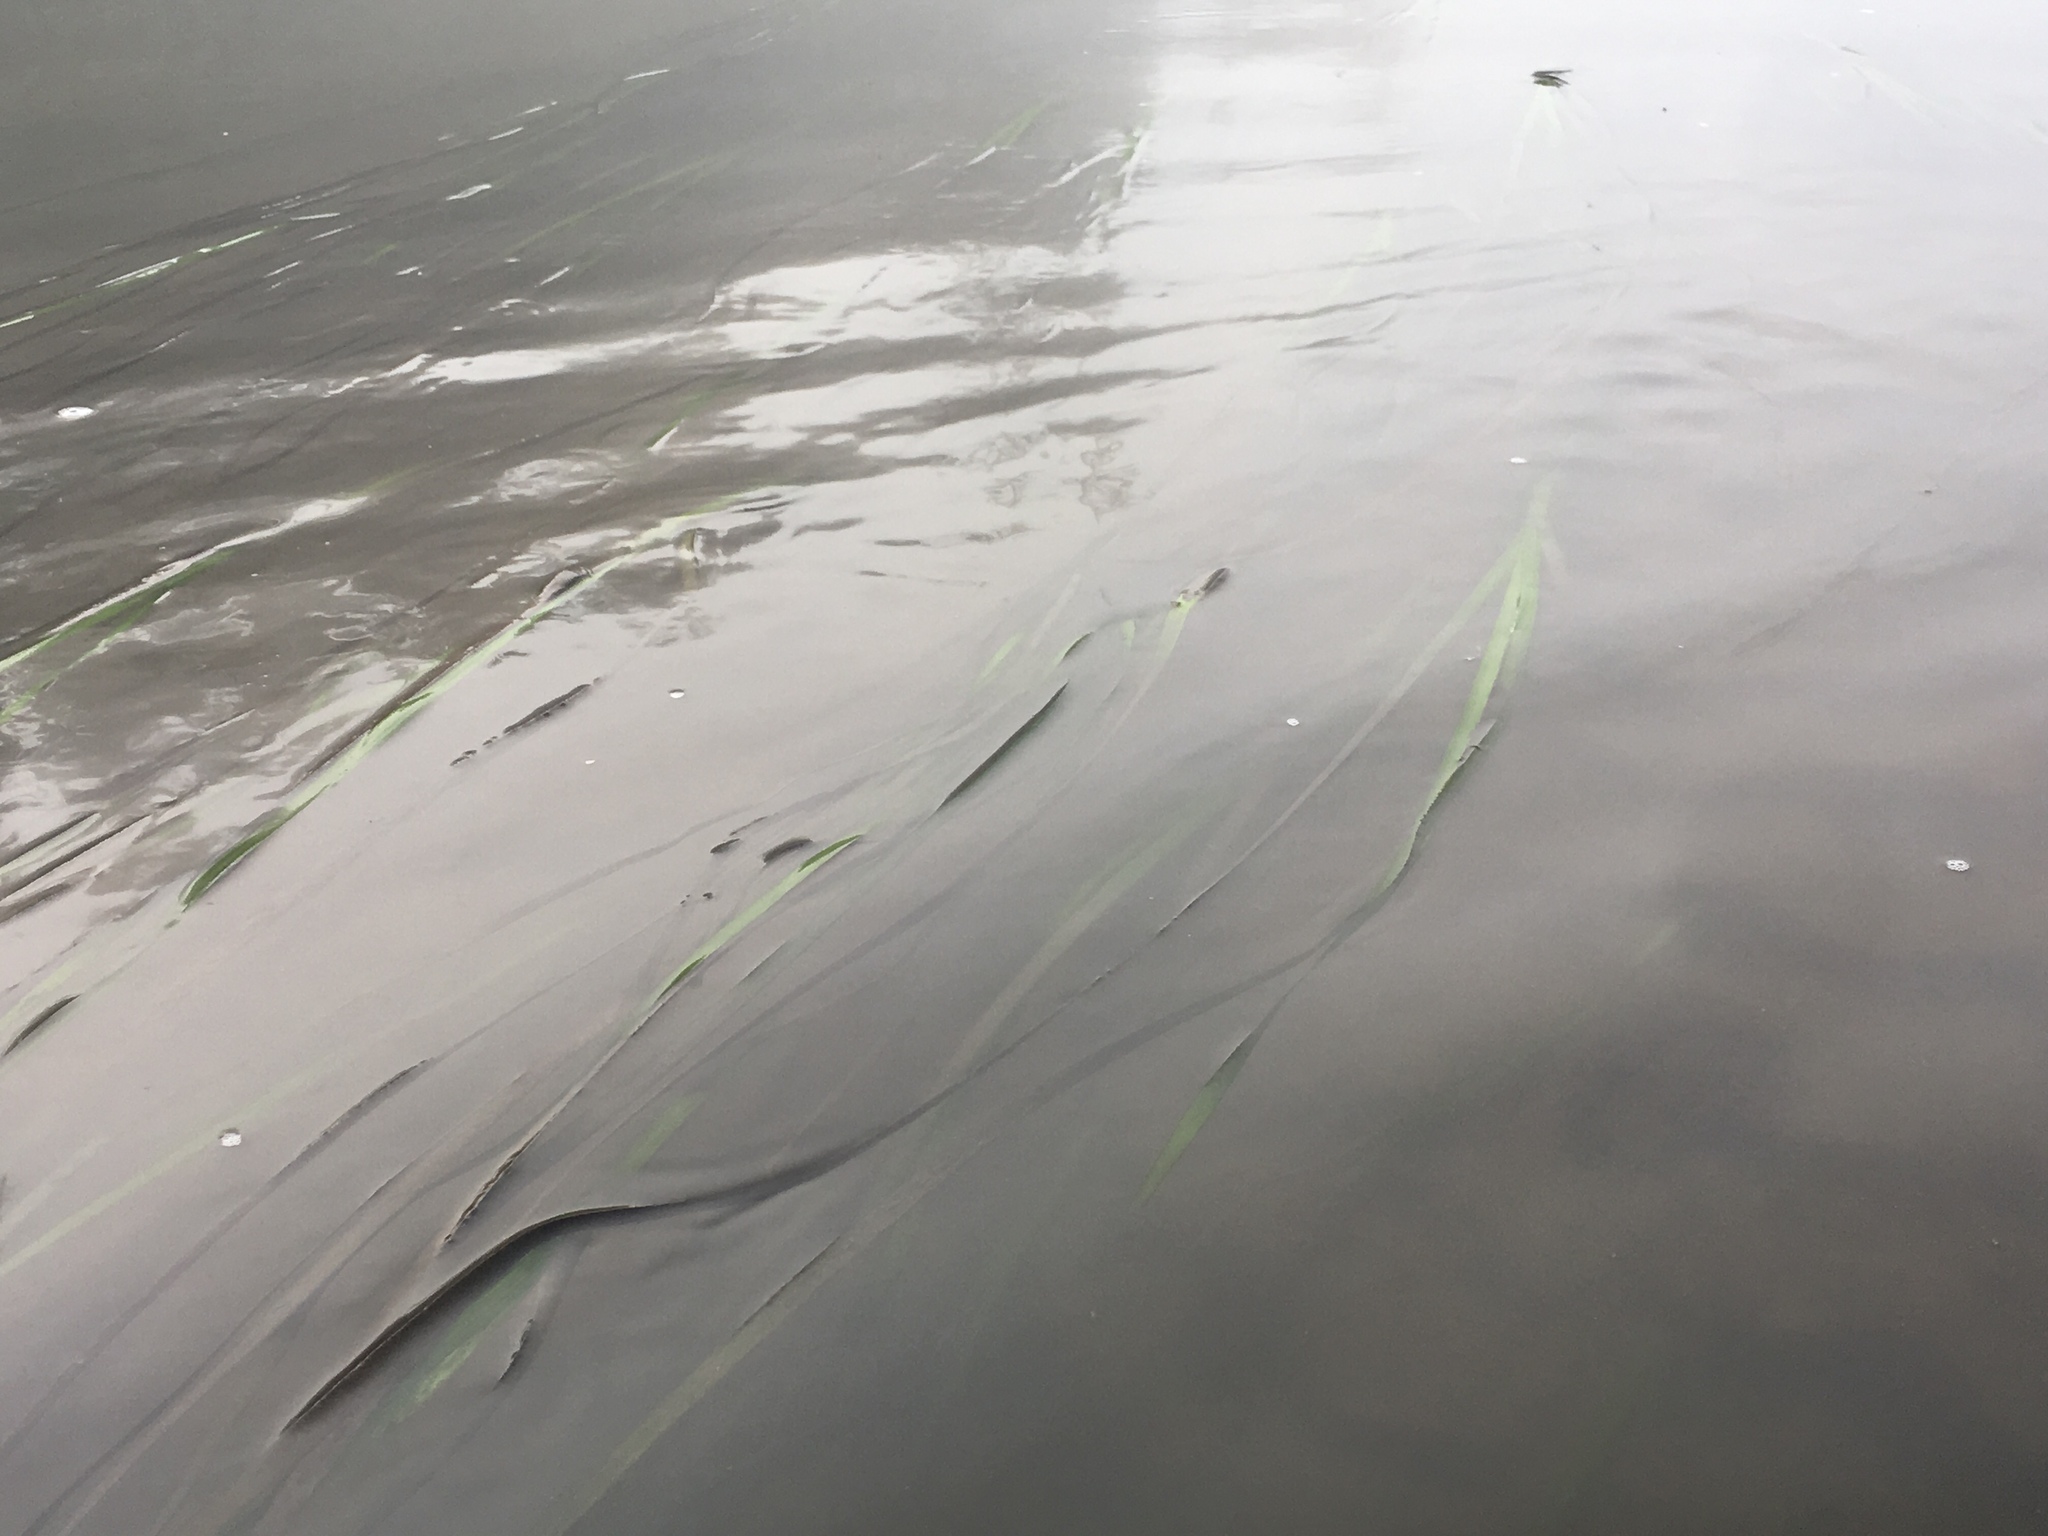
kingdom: Plantae
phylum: Tracheophyta
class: Liliopsida
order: Alismatales
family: Zosteraceae
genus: Zostera
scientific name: Zostera marina
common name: Eelgrass
